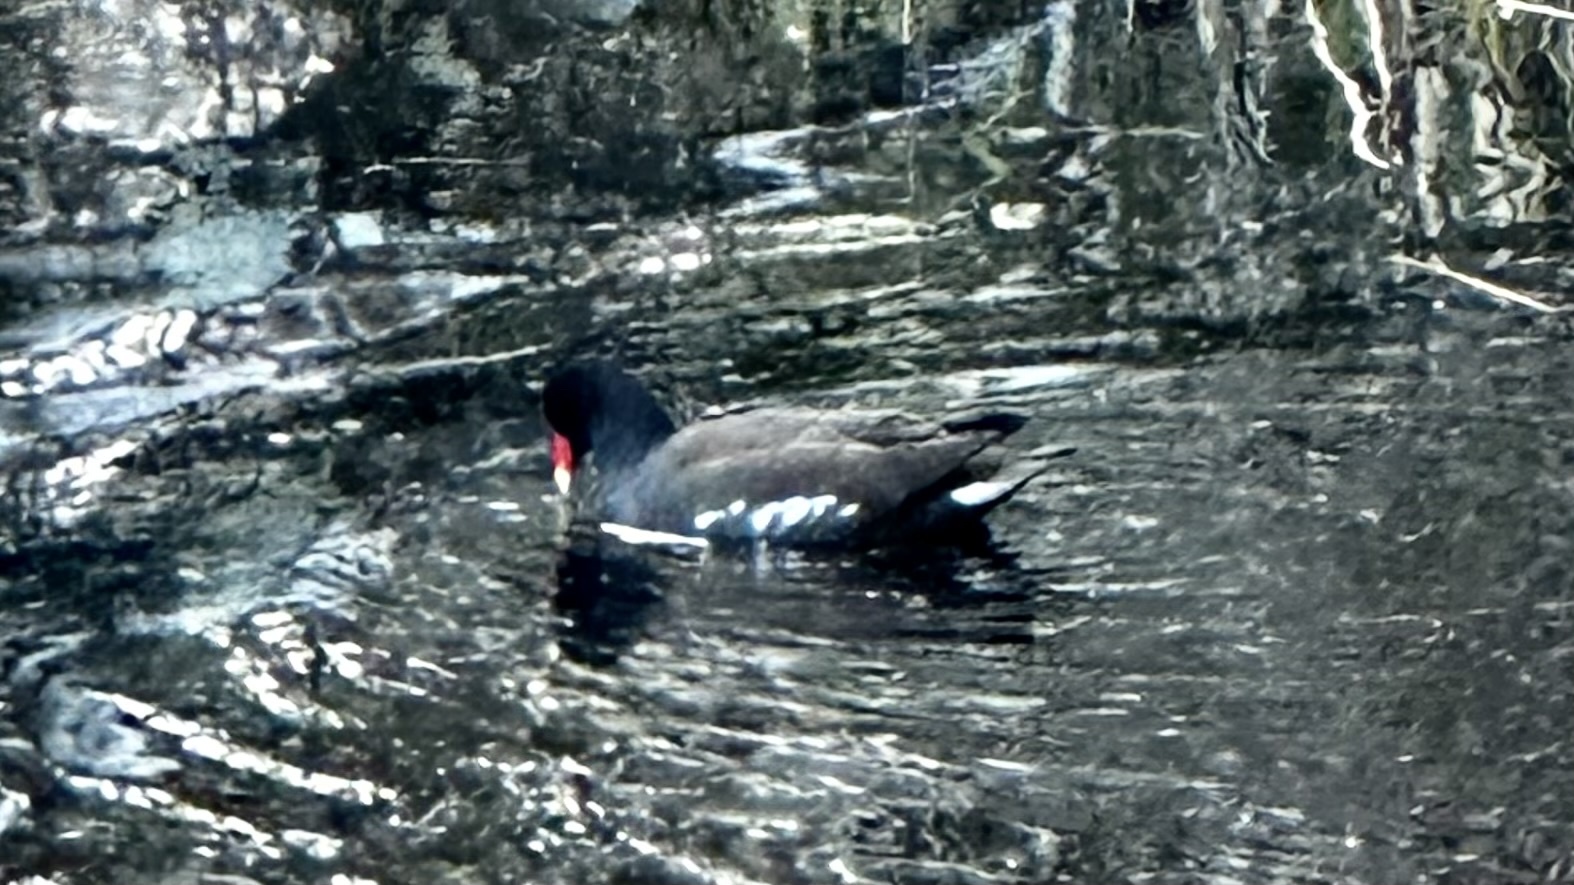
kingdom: Animalia
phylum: Chordata
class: Aves
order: Gruiformes
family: Rallidae
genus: Gallinula
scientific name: Gallinula chloropus
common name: Common moorhen
